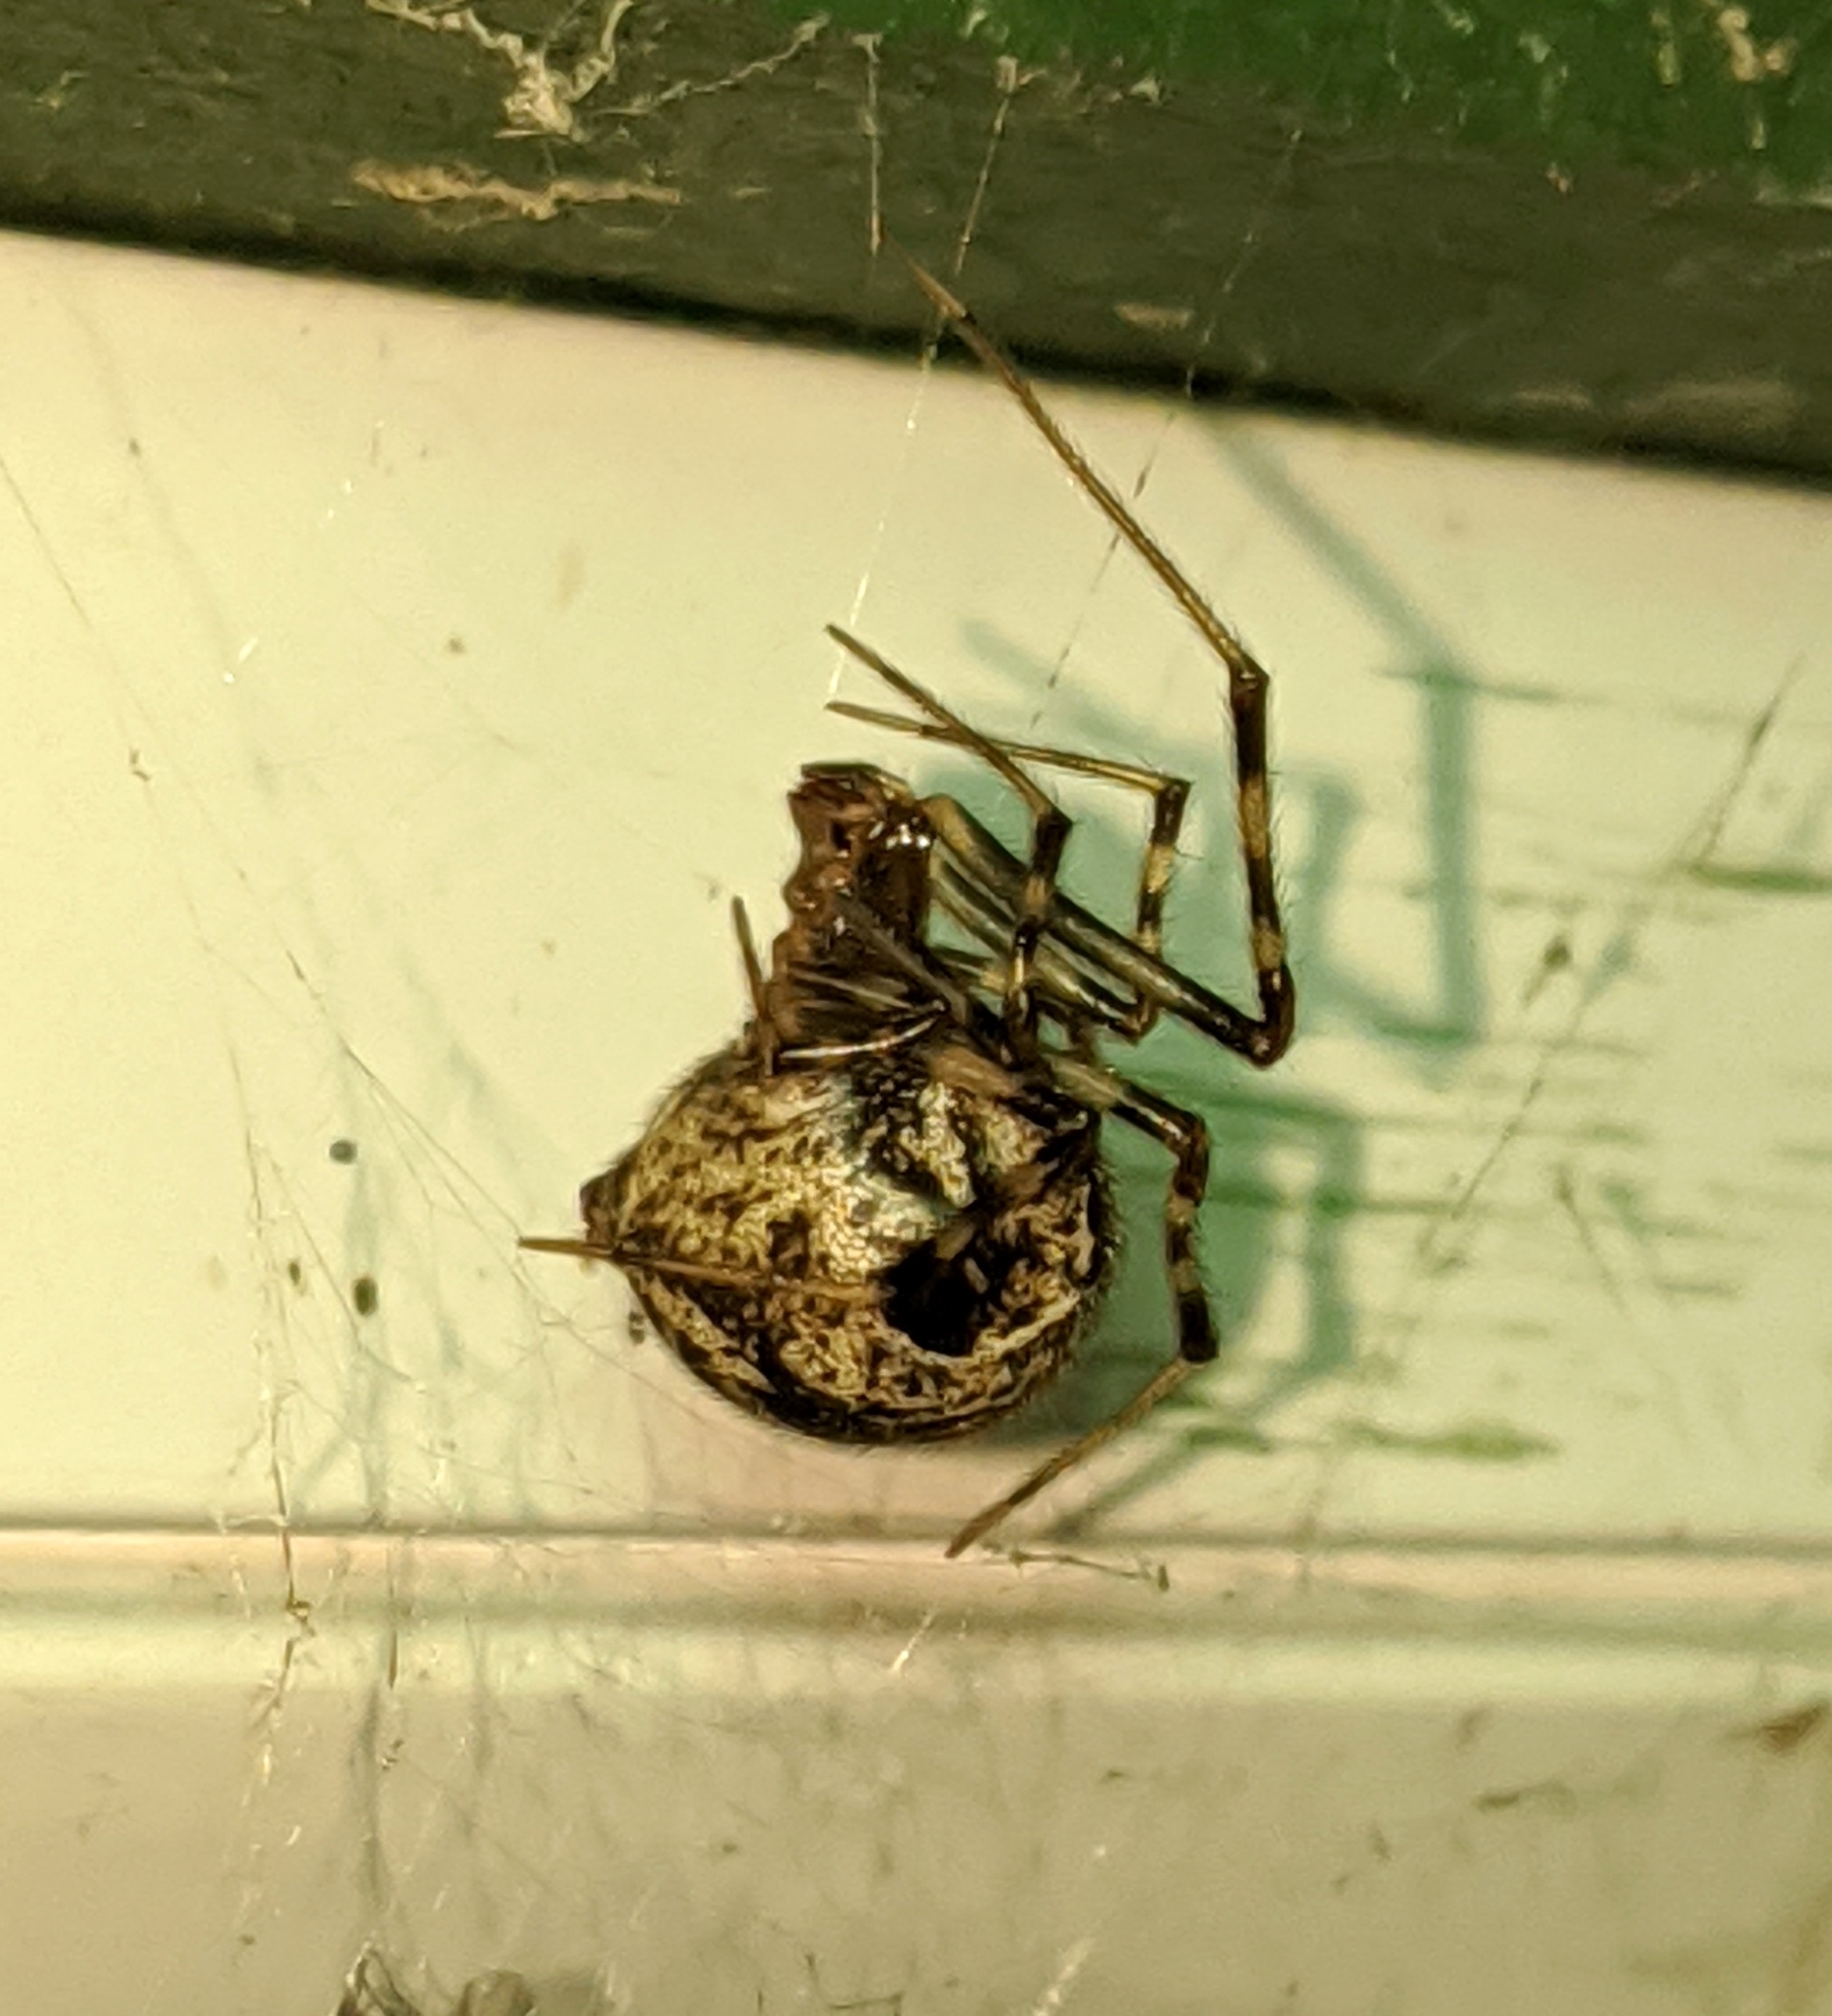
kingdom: Animalia
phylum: Arthropoda
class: Arachnida
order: Araneae
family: Theridiidae
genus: Parasteatoda
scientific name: Parasteatoda tepidariorum
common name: Common house spider
